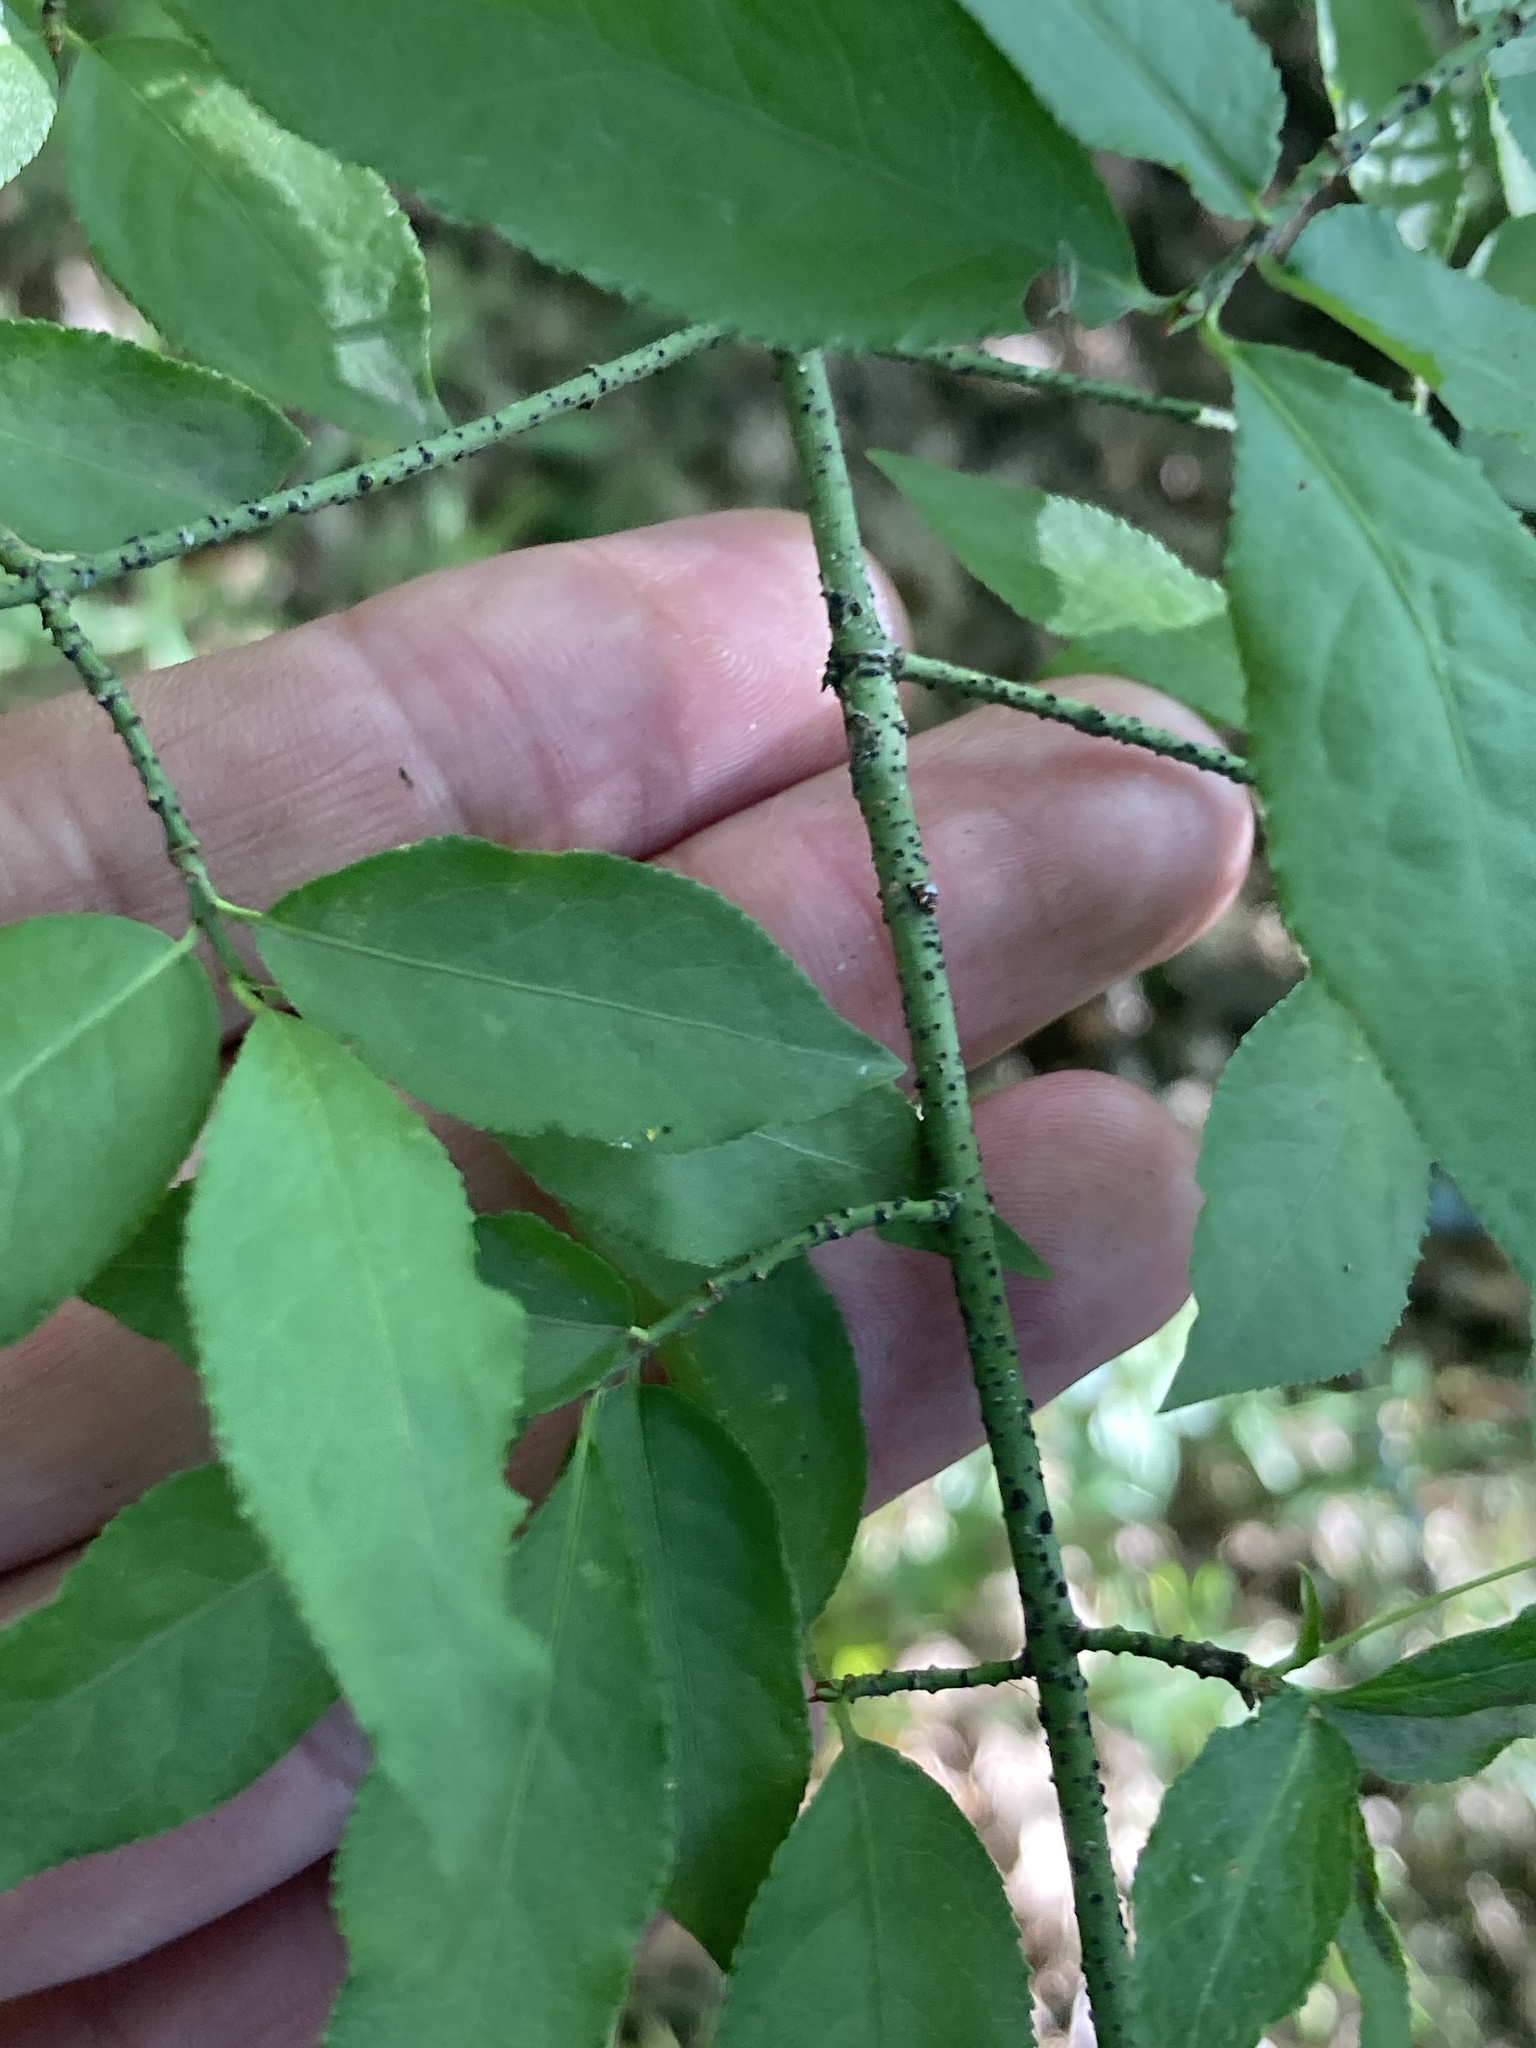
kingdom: Plantae
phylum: Tracheophyta
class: Magnoliopsida
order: Celastrales
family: Celastraceae
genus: Euonymus
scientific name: Euonymus verrucosus
